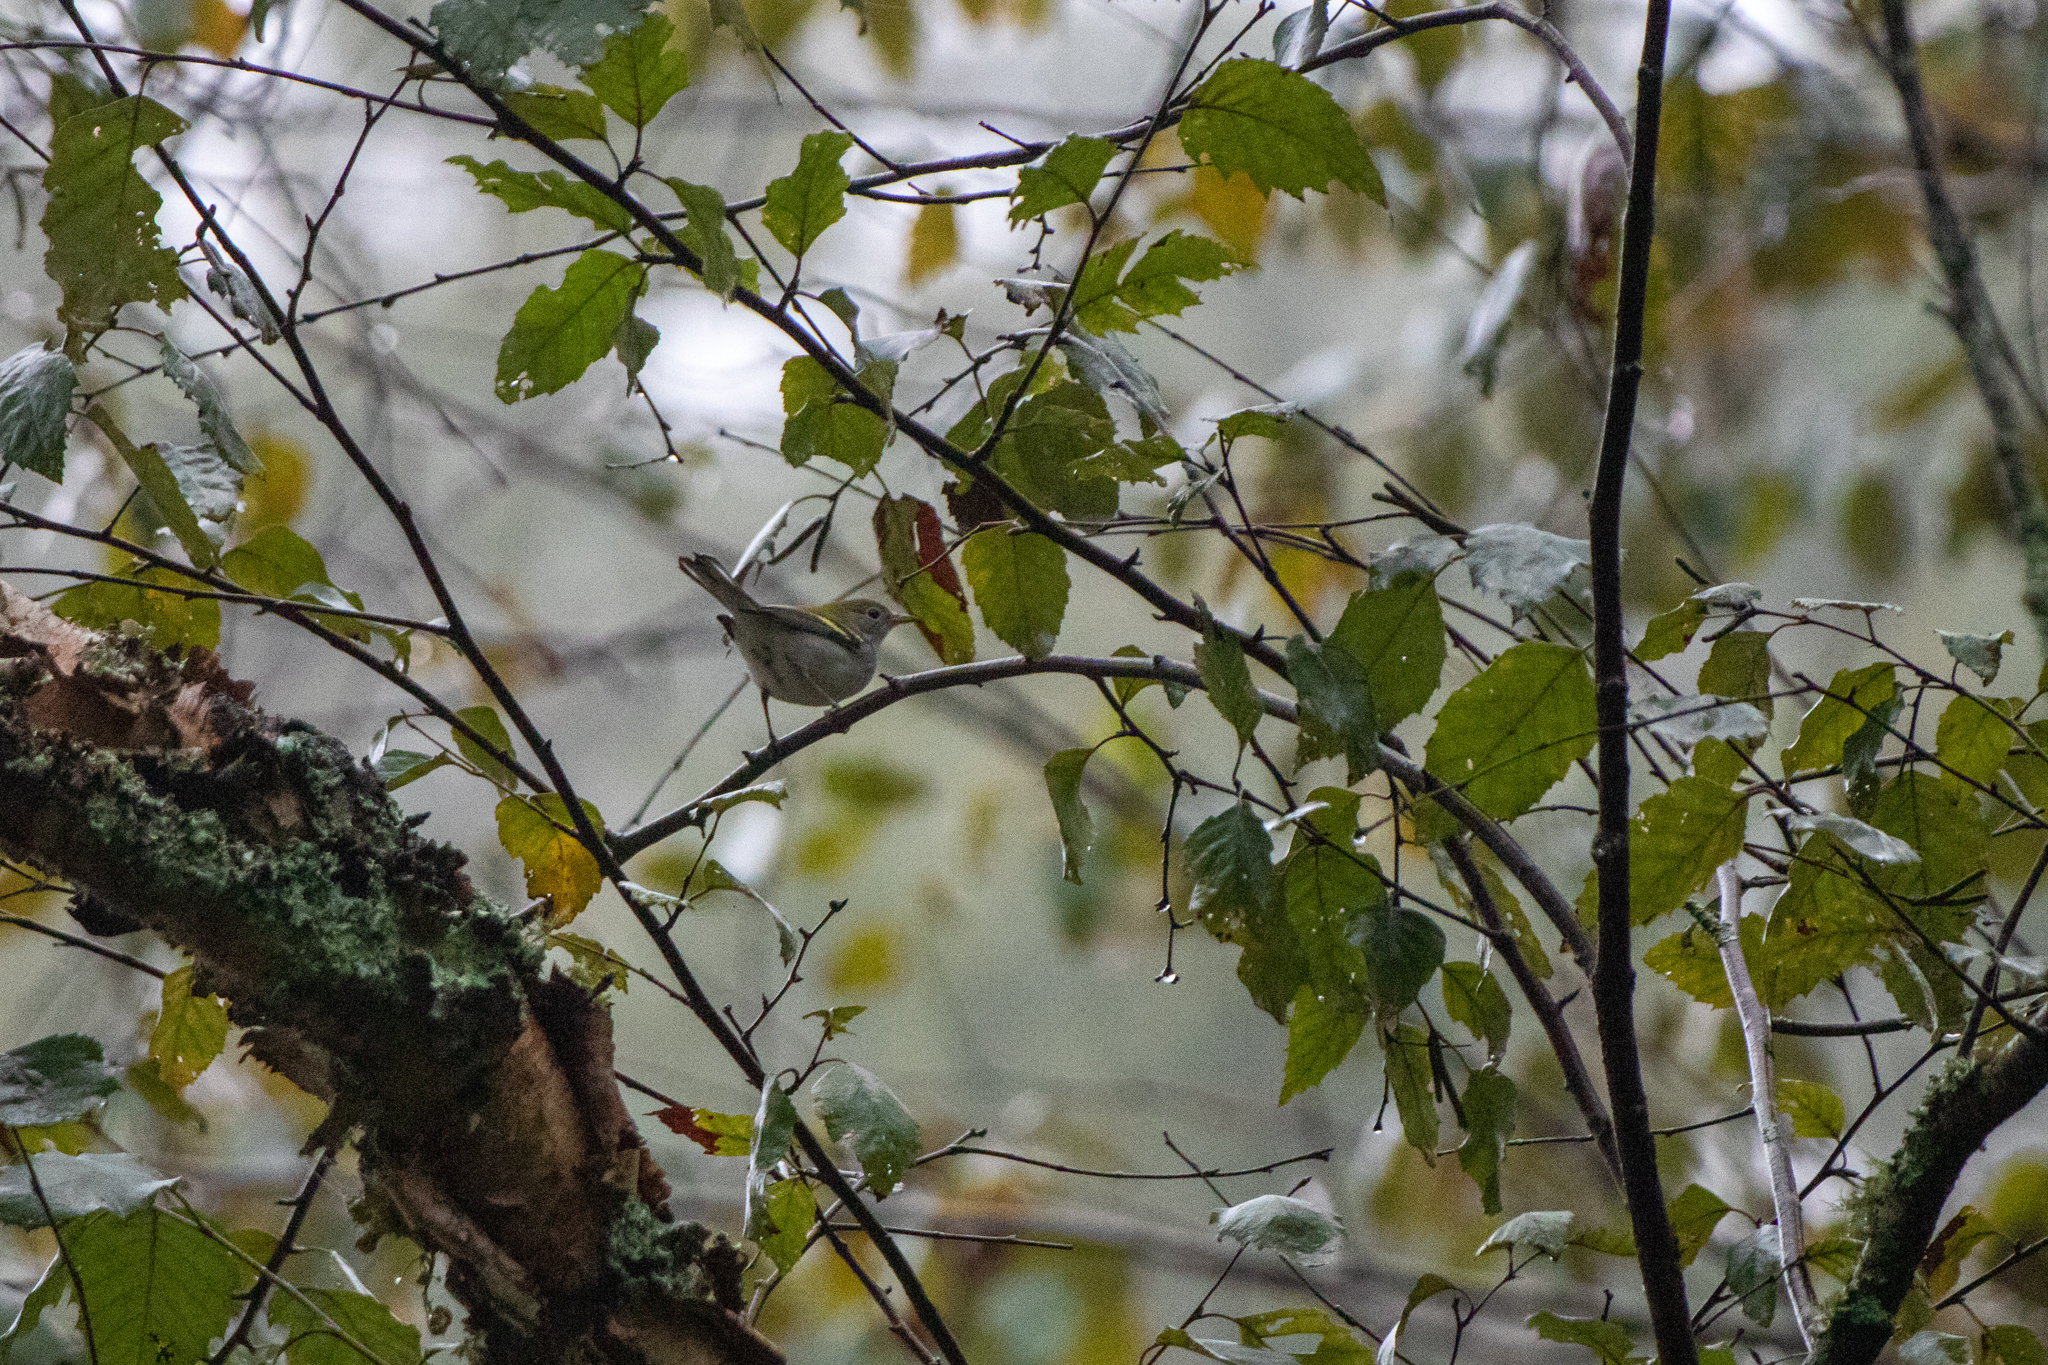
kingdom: Animalia
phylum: Chordata
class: Aves
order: Passeriformes
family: Parulidae
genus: Setophaga
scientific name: Setophaga pensylvanica
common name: Chestnut-sided warbler
